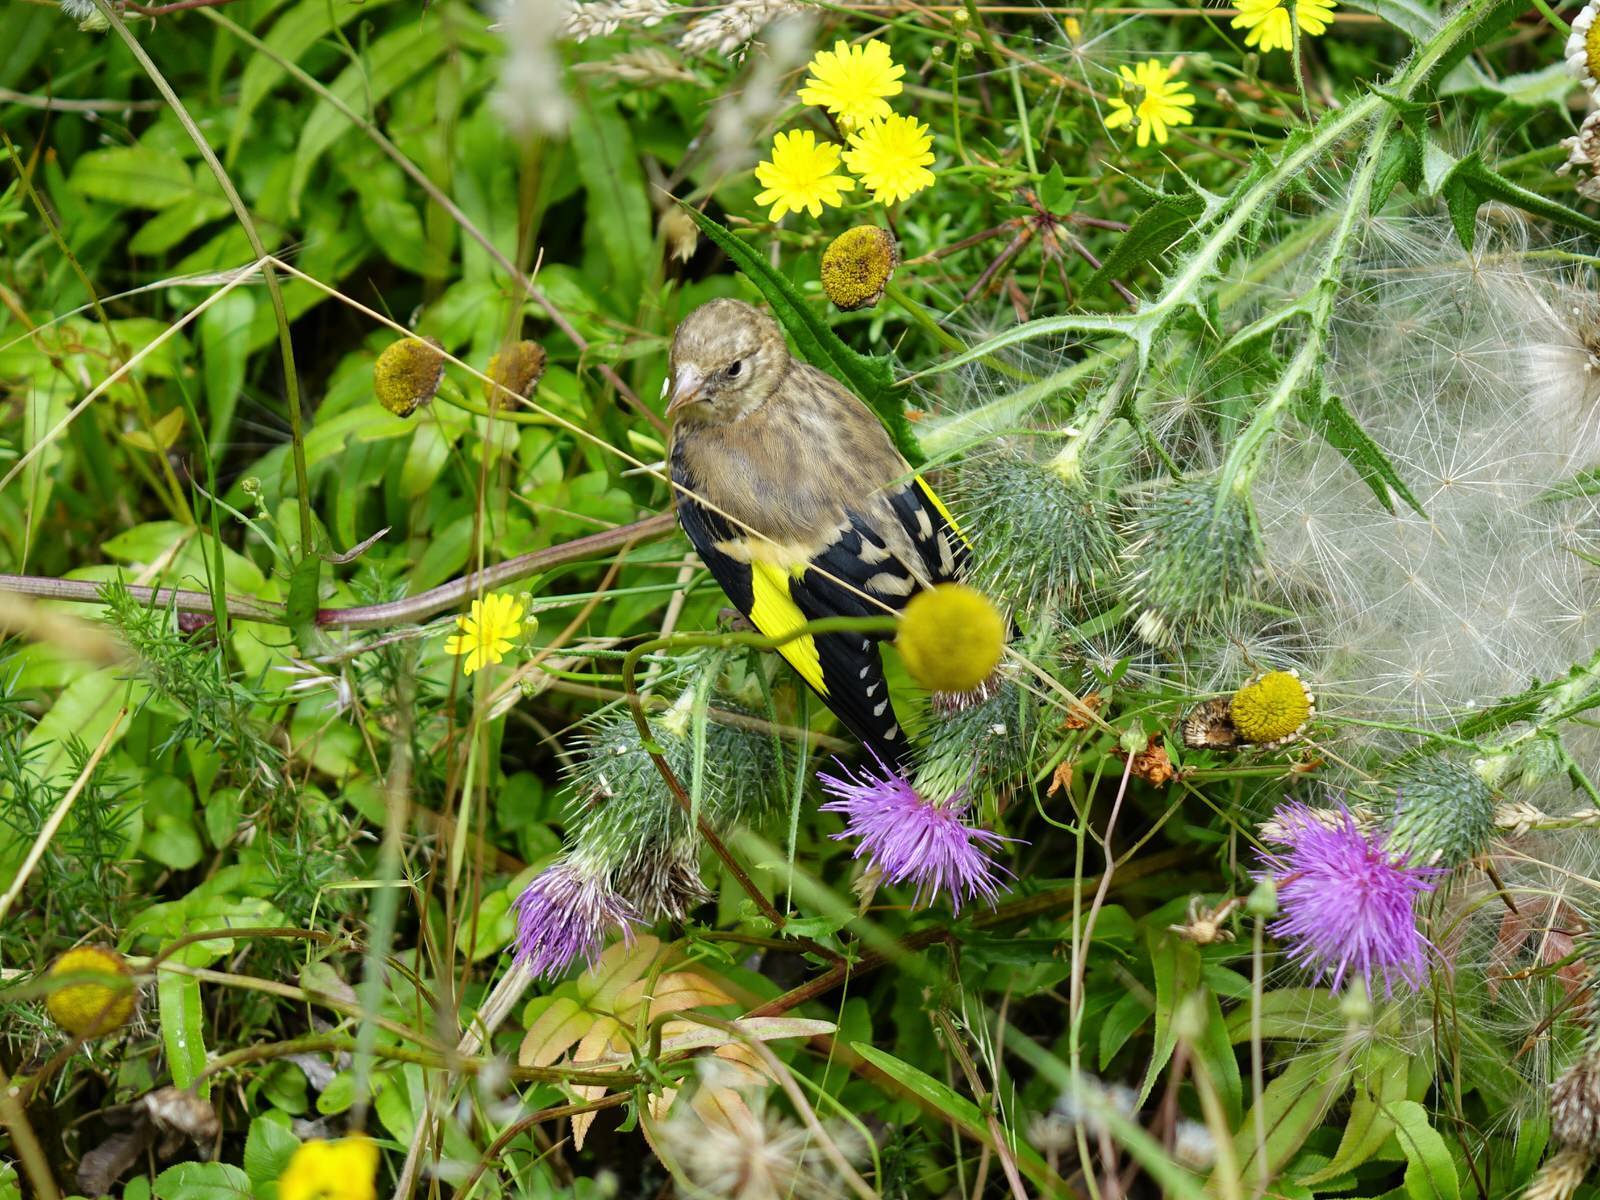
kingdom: Animalia
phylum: Chordata
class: Aves
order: Passeriformes
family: Fringillidae
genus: Carduelis
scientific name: Carduelis carduelis
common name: European goldfinch
